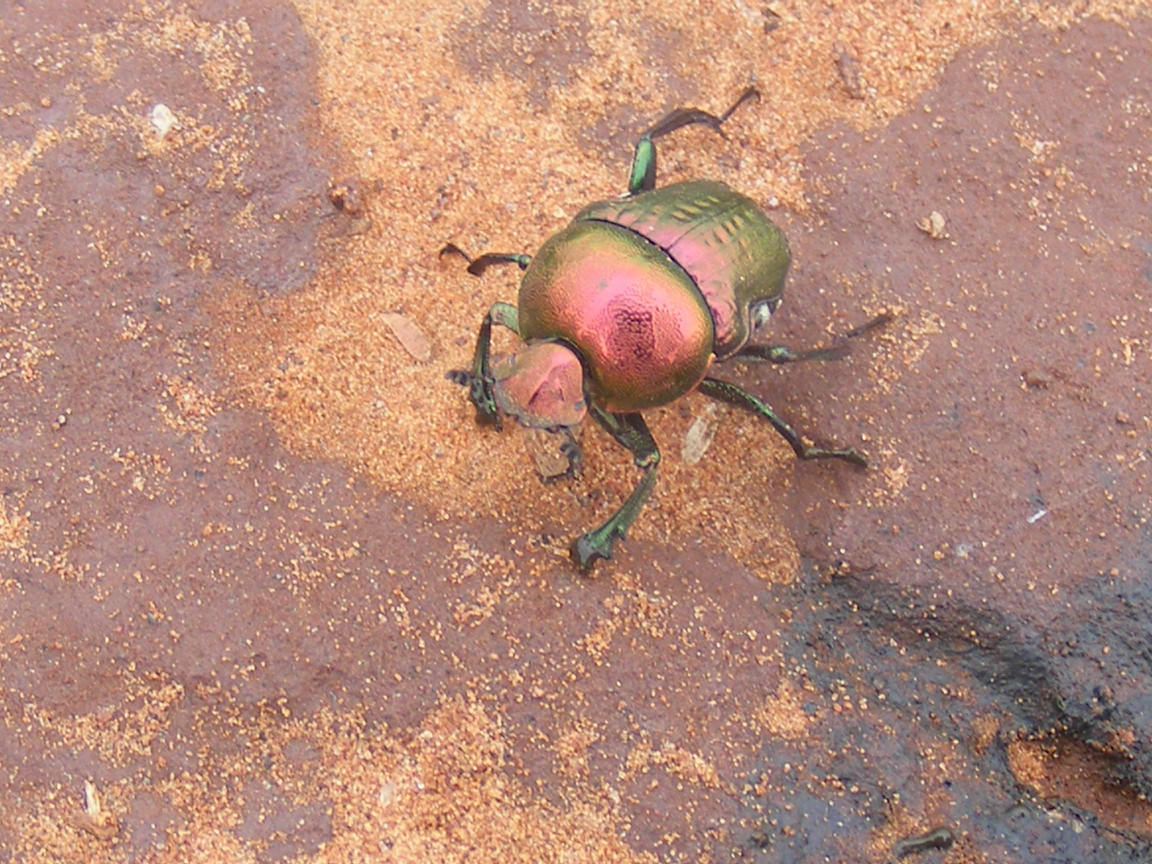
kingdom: Animalia
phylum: Arthropoda
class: Insecta
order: Coleoptera
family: Scarabaeidae
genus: Gymnopleurus
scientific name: Gymnopleurus virens
